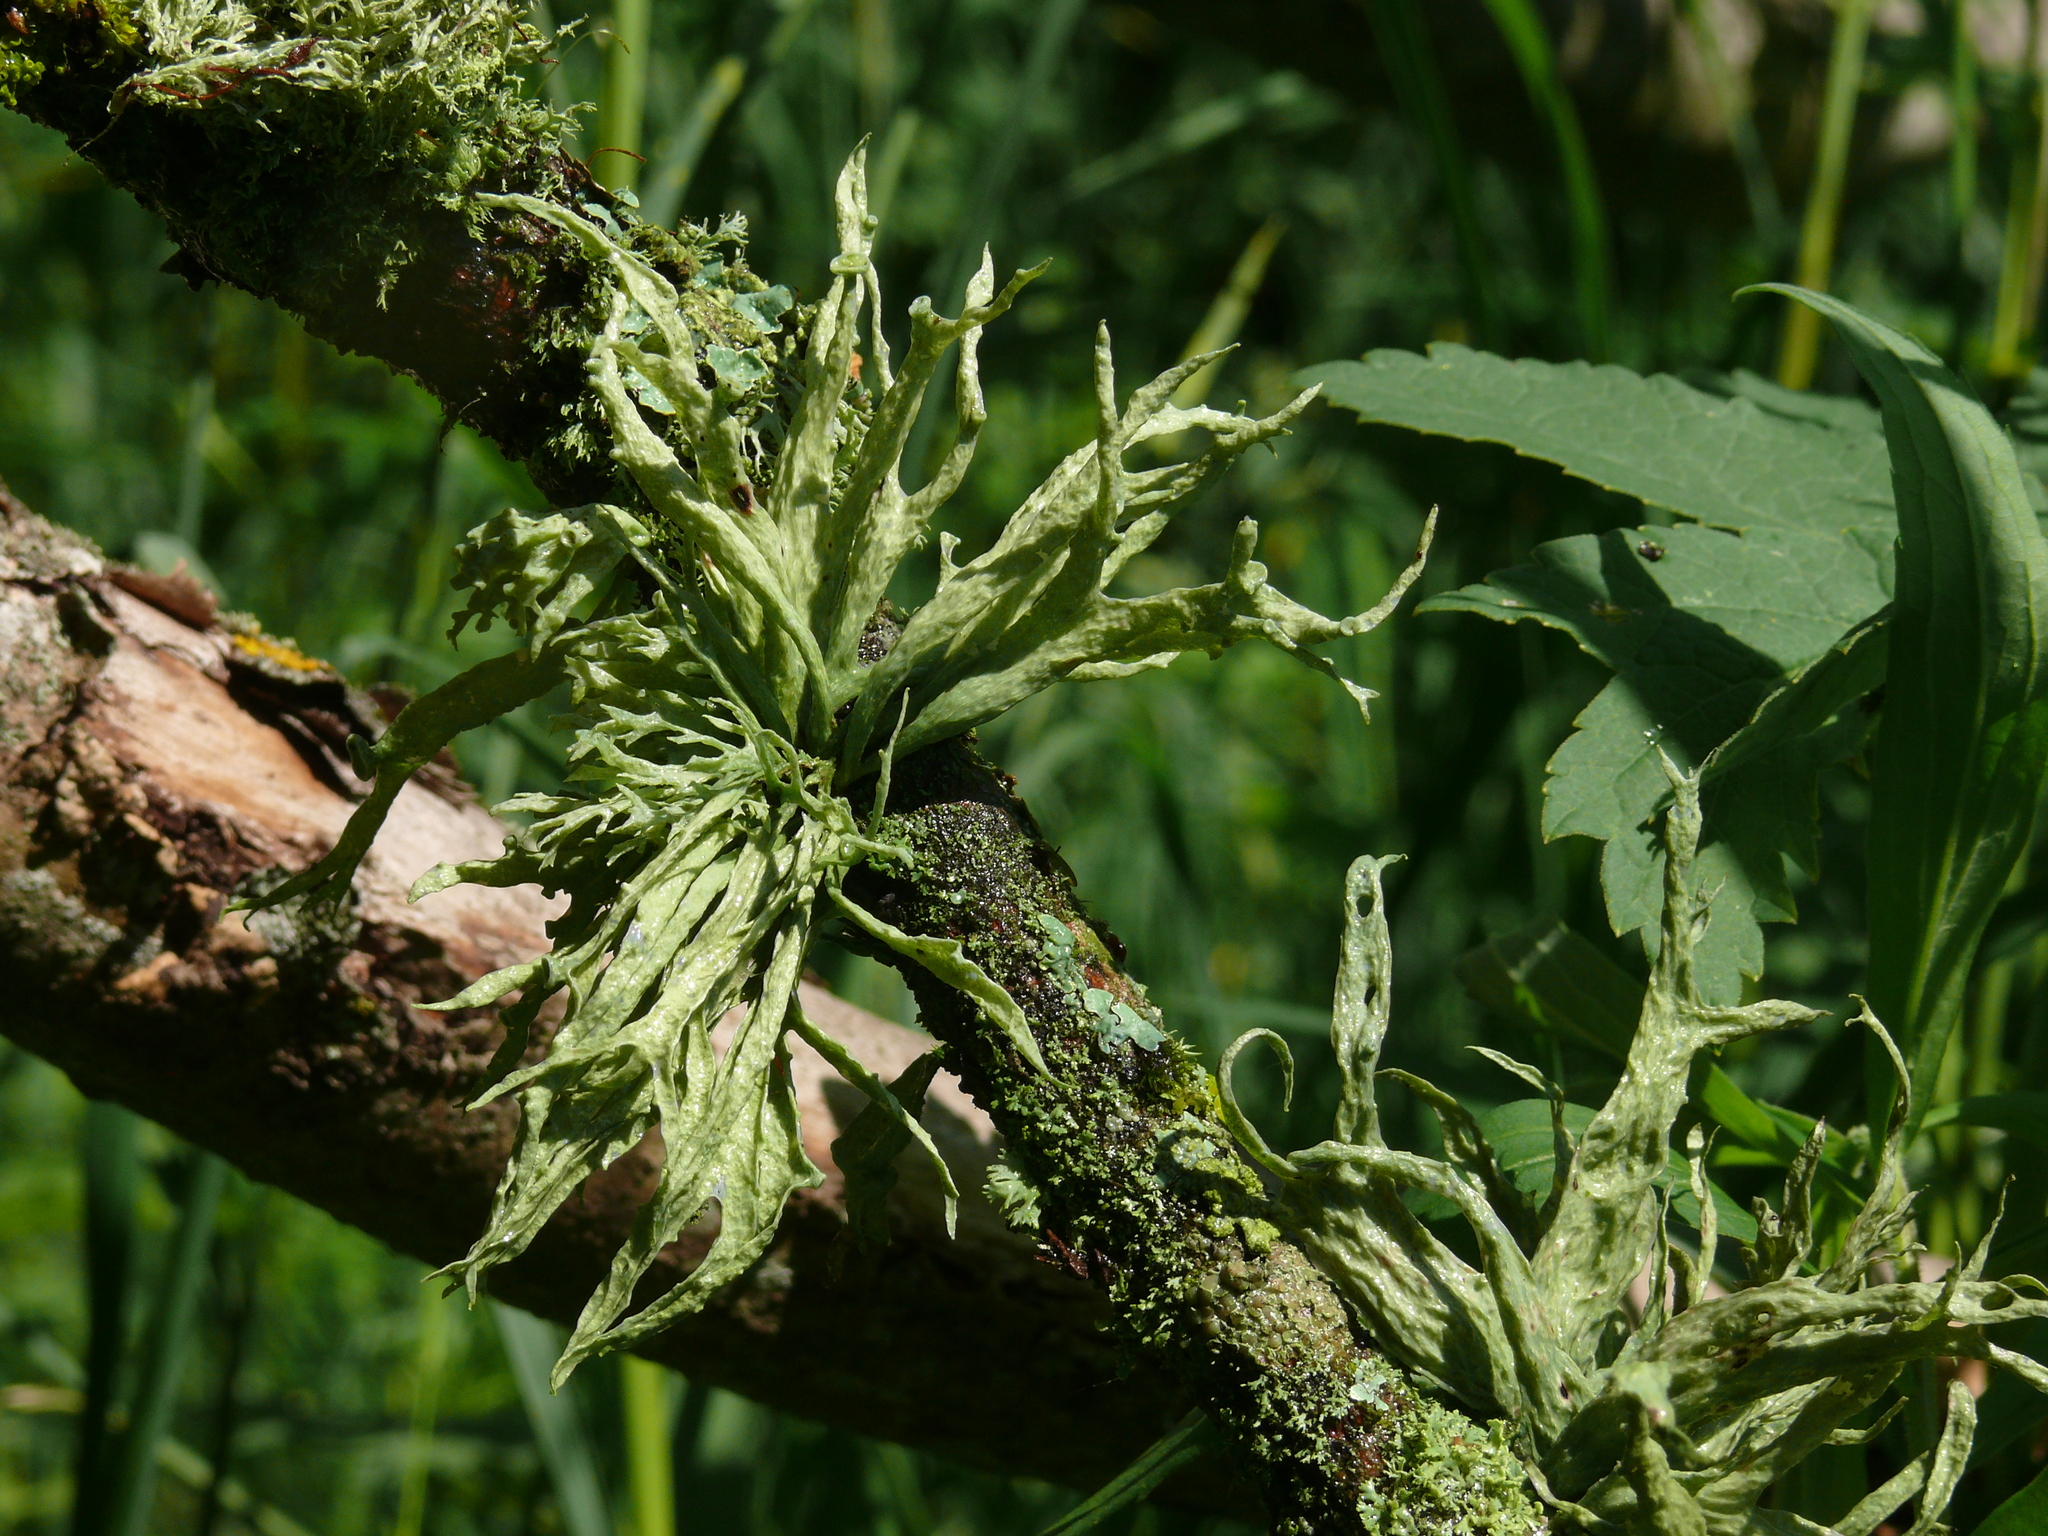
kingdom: Fungi
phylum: Ascomycota
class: Lecanoromycetes
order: Lecanorales
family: Ramalinaceae
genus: Ramalina
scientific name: Ramalina fraxinea
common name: Cartilage lichen
